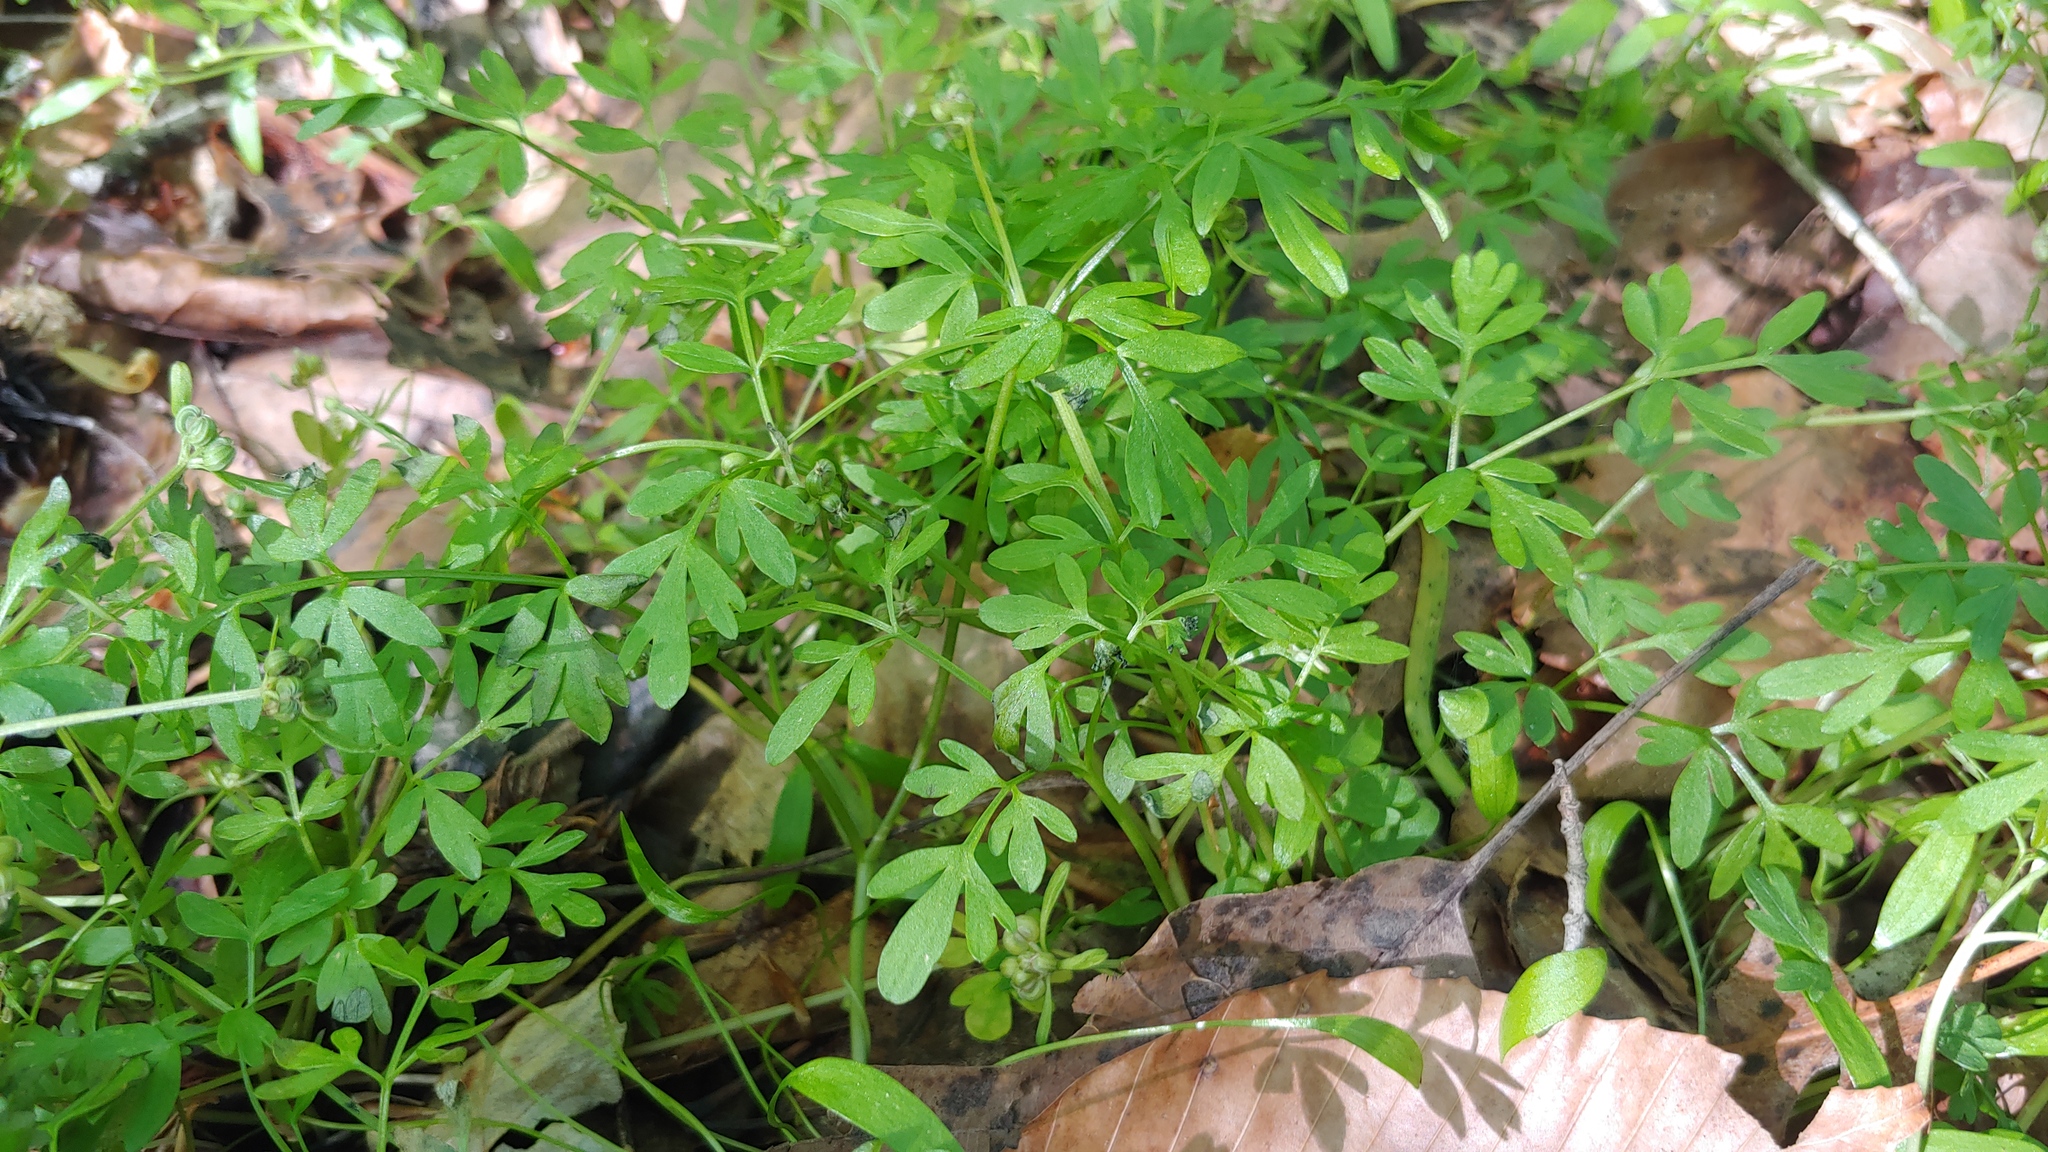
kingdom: Plantae
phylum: Tracheophyta
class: Magnoliopsida
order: Apiales
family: Apiaceae
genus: Erigenia
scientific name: Erigenia bulbosa
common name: Pepper-and-salt
